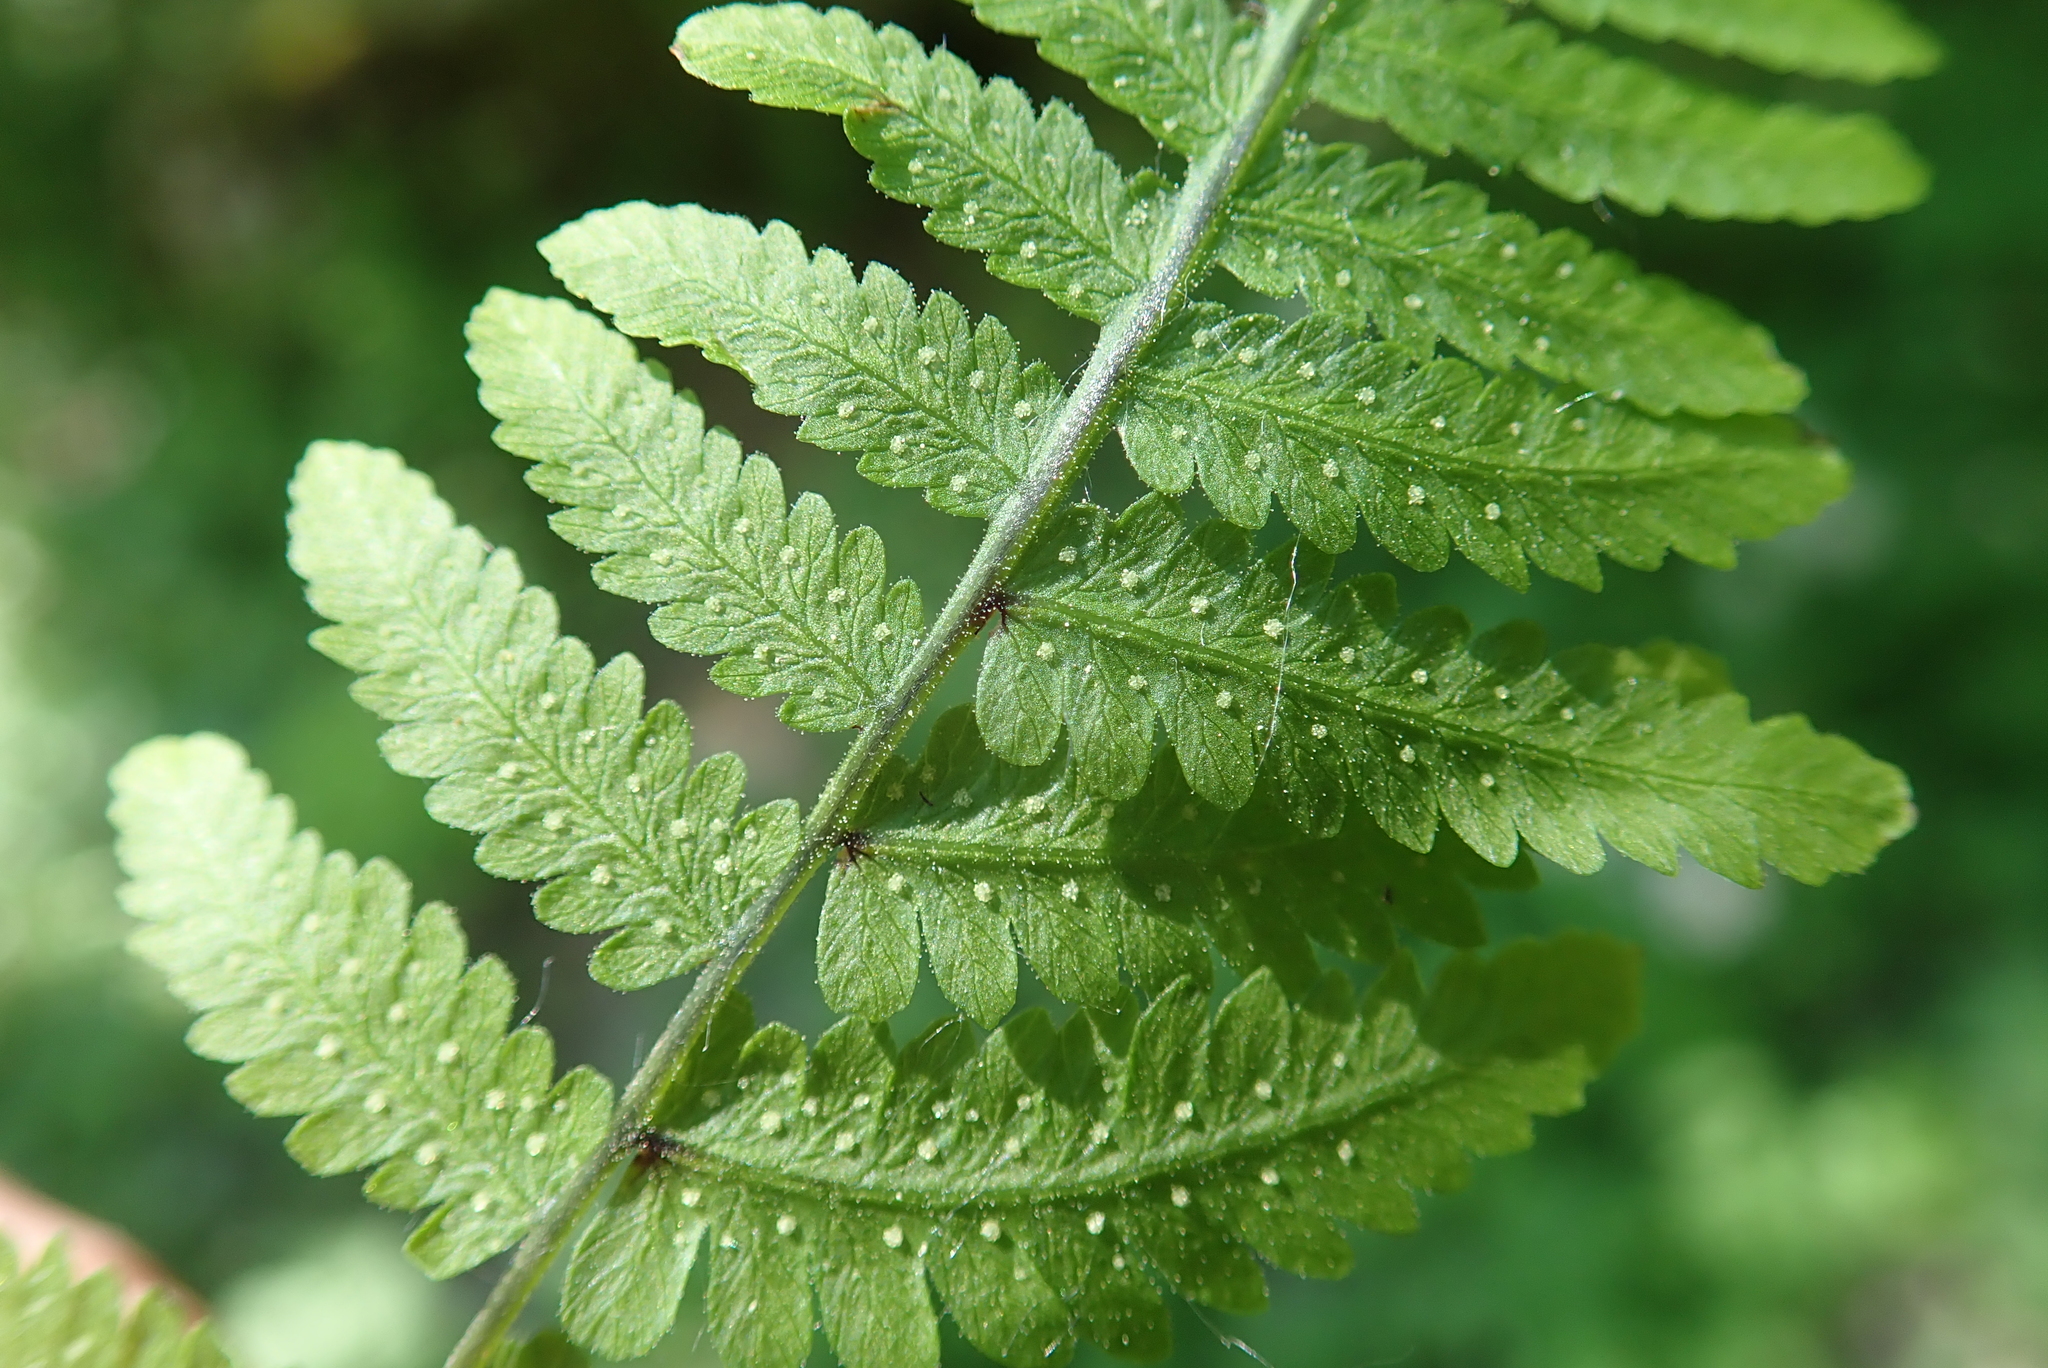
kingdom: Plantae
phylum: Tracheophyta
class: Polypodiopsida
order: Polypodiales
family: Cystopteridaceae
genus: Gymnocarpium
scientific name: Gymnocarpium robertianum
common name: Limestone fern
